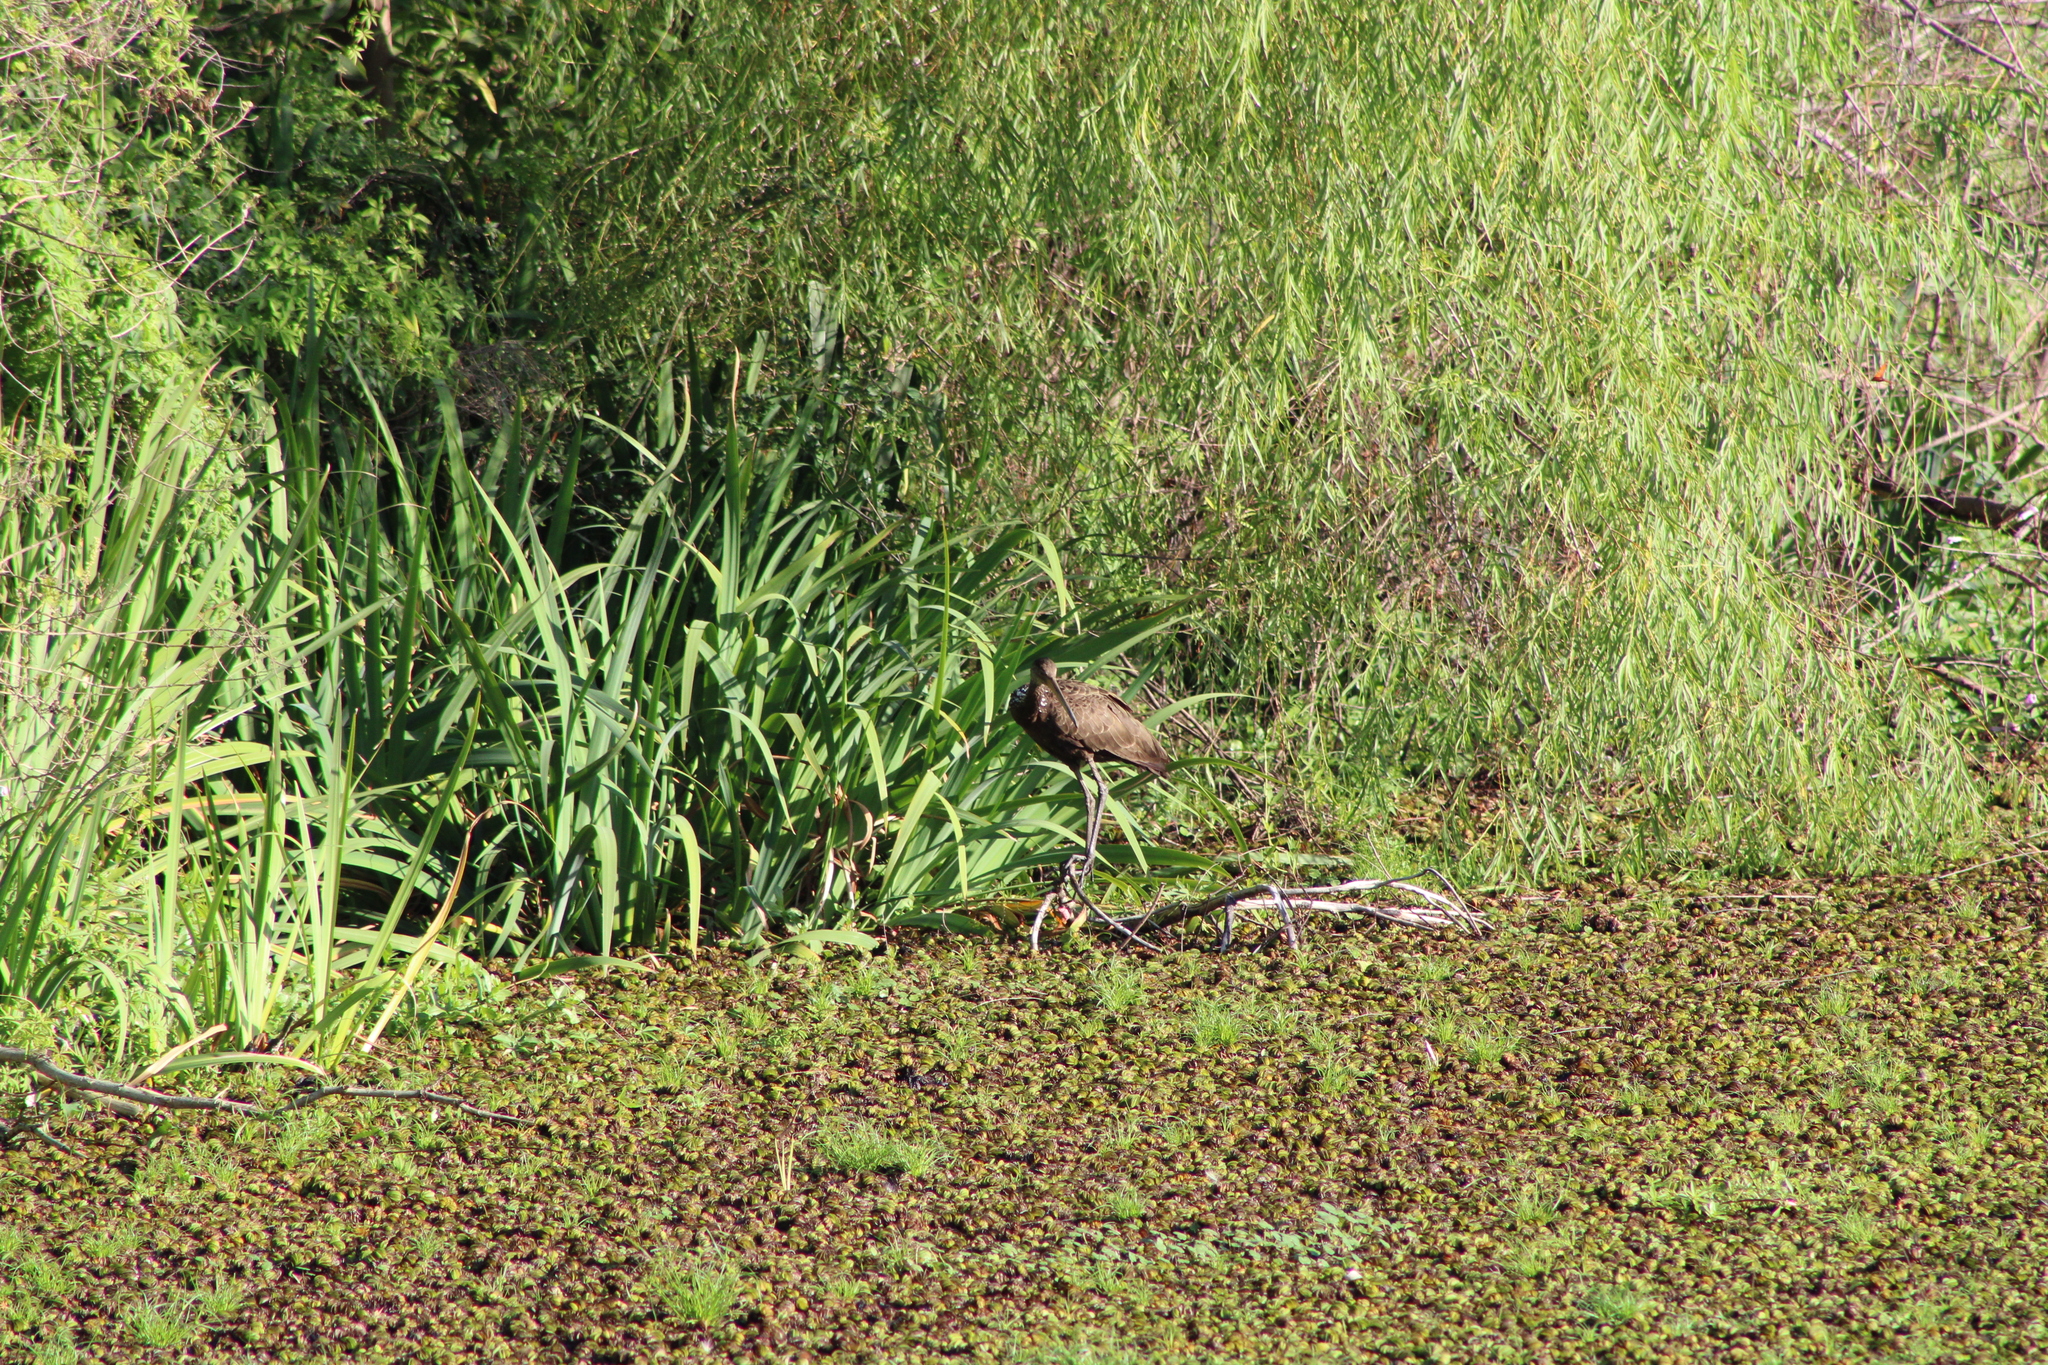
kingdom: Animalia
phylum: Chordata
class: Aves
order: Gruiformes
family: Aramidae
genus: Aramus
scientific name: Aramus guarauna
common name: Limpkin
